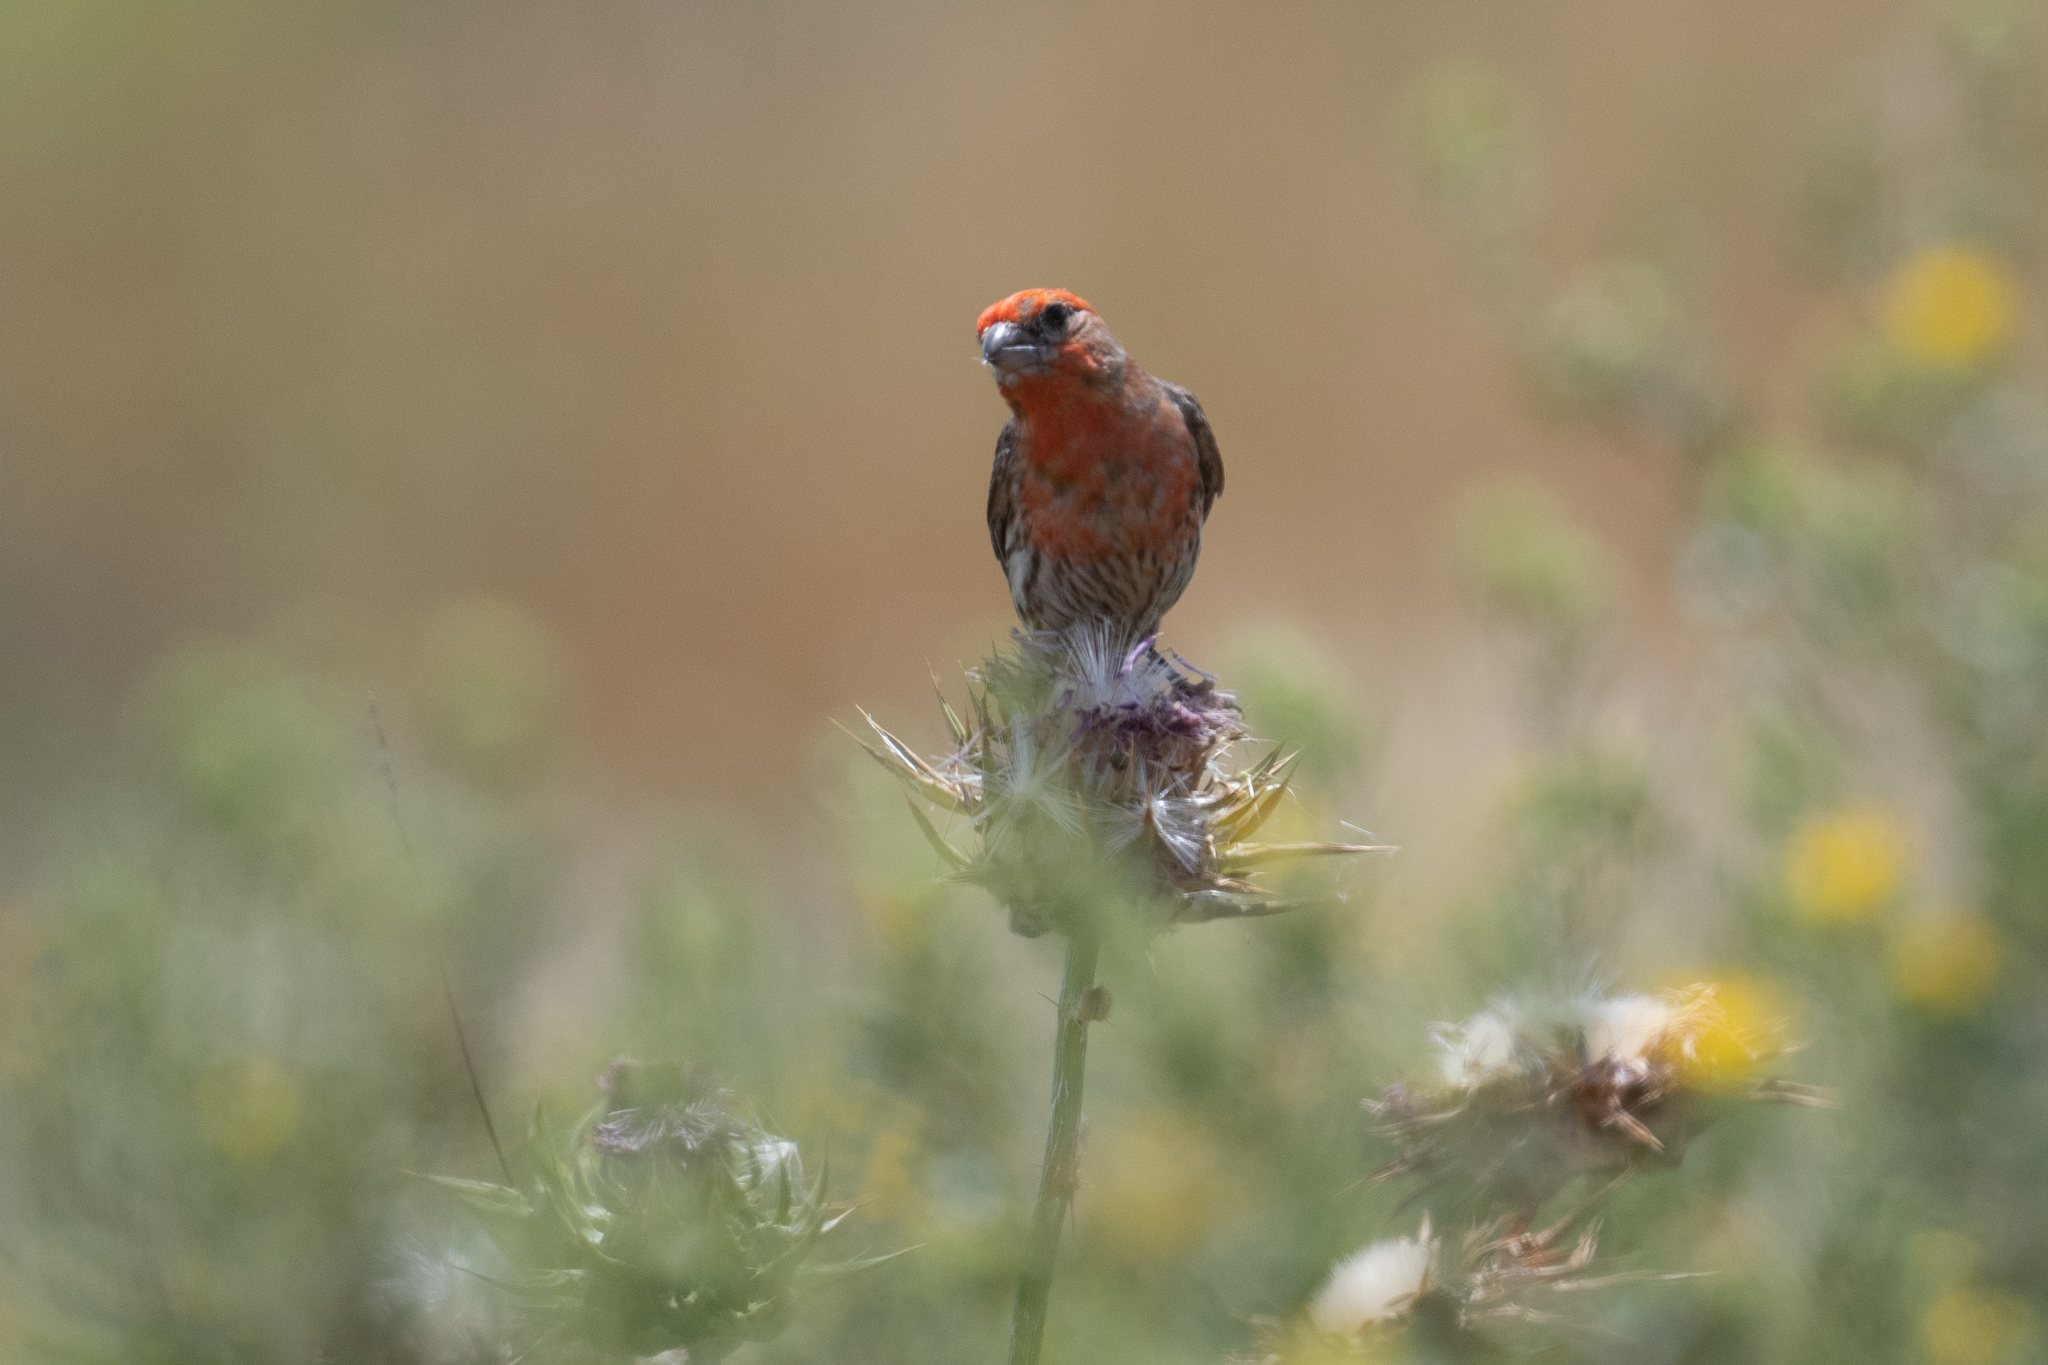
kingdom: Animalia
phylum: Chordata
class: Aves
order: Passeriformes
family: Fringillidae
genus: Haemorhous
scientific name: Haemorhous mexicanus
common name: House finch
